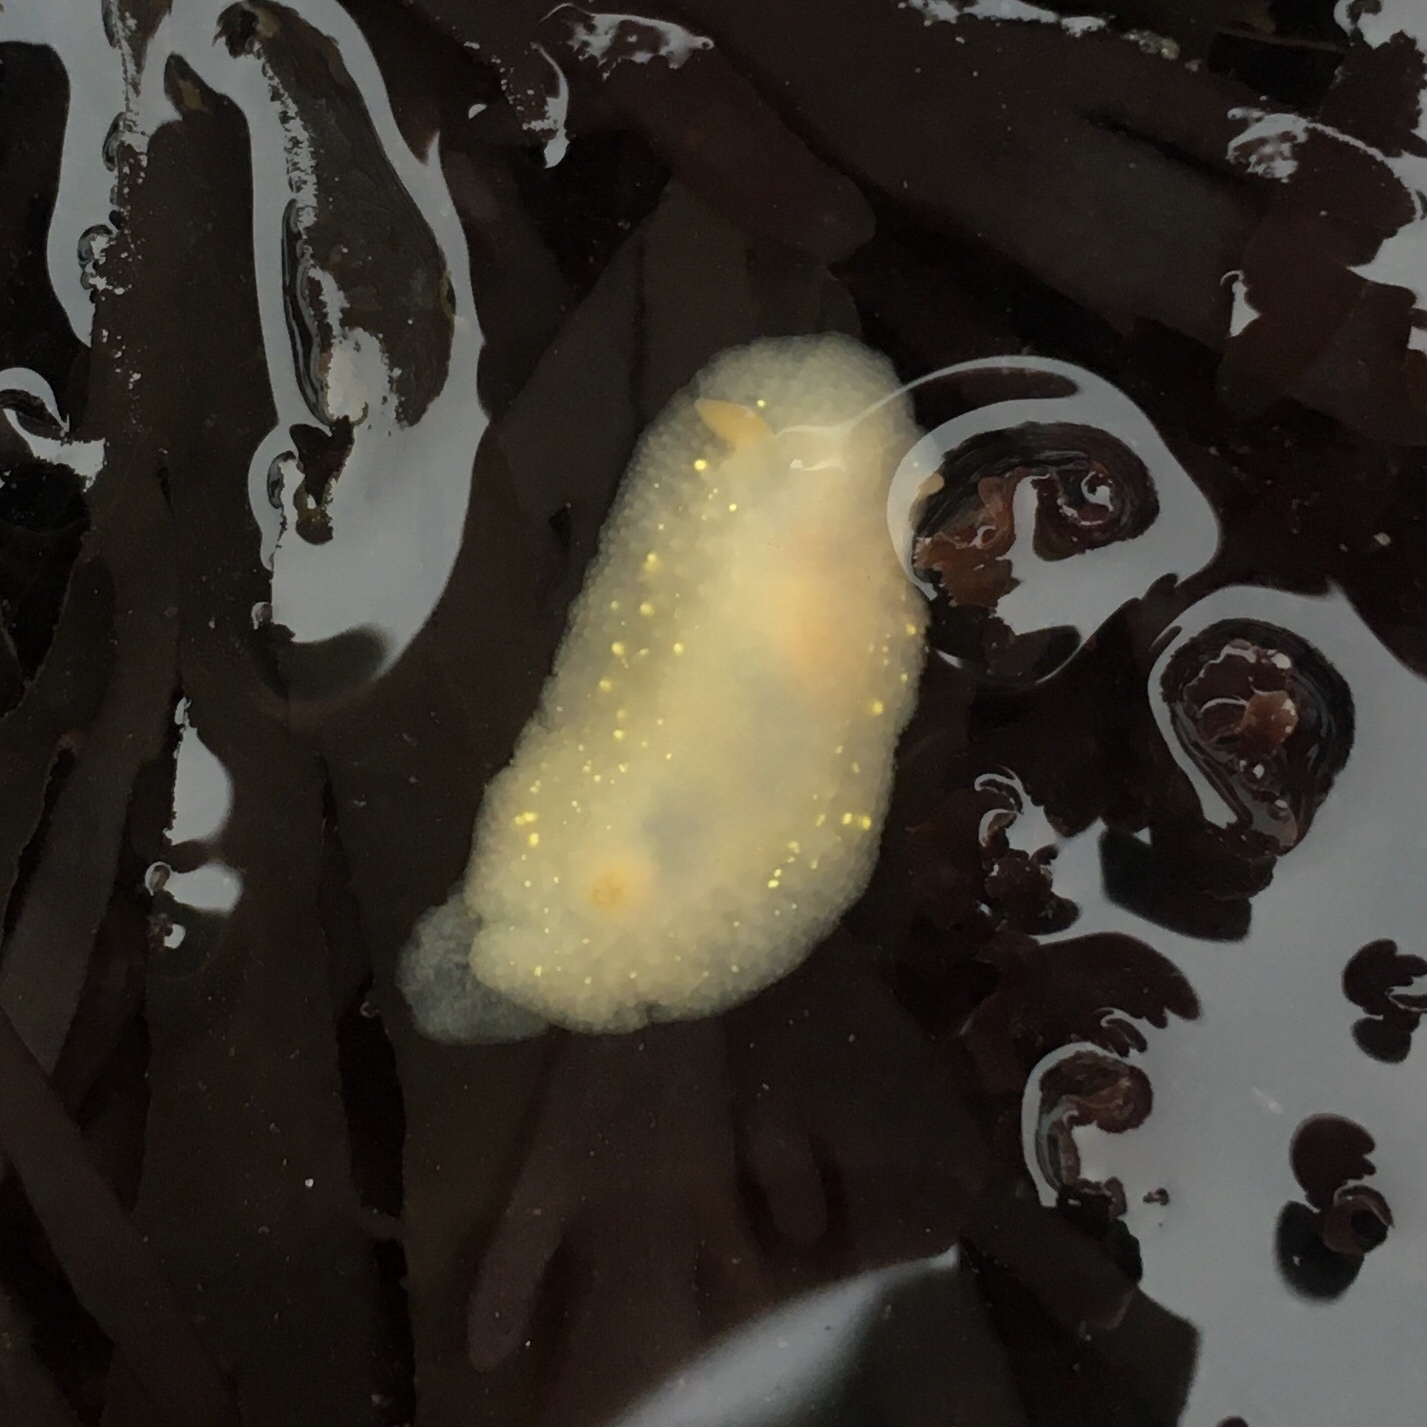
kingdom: Animalia
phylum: Mollusca
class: Gastropoda
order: Nudibranchia
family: Cadlinidae
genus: Cadlina
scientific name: Cadlina modesta
